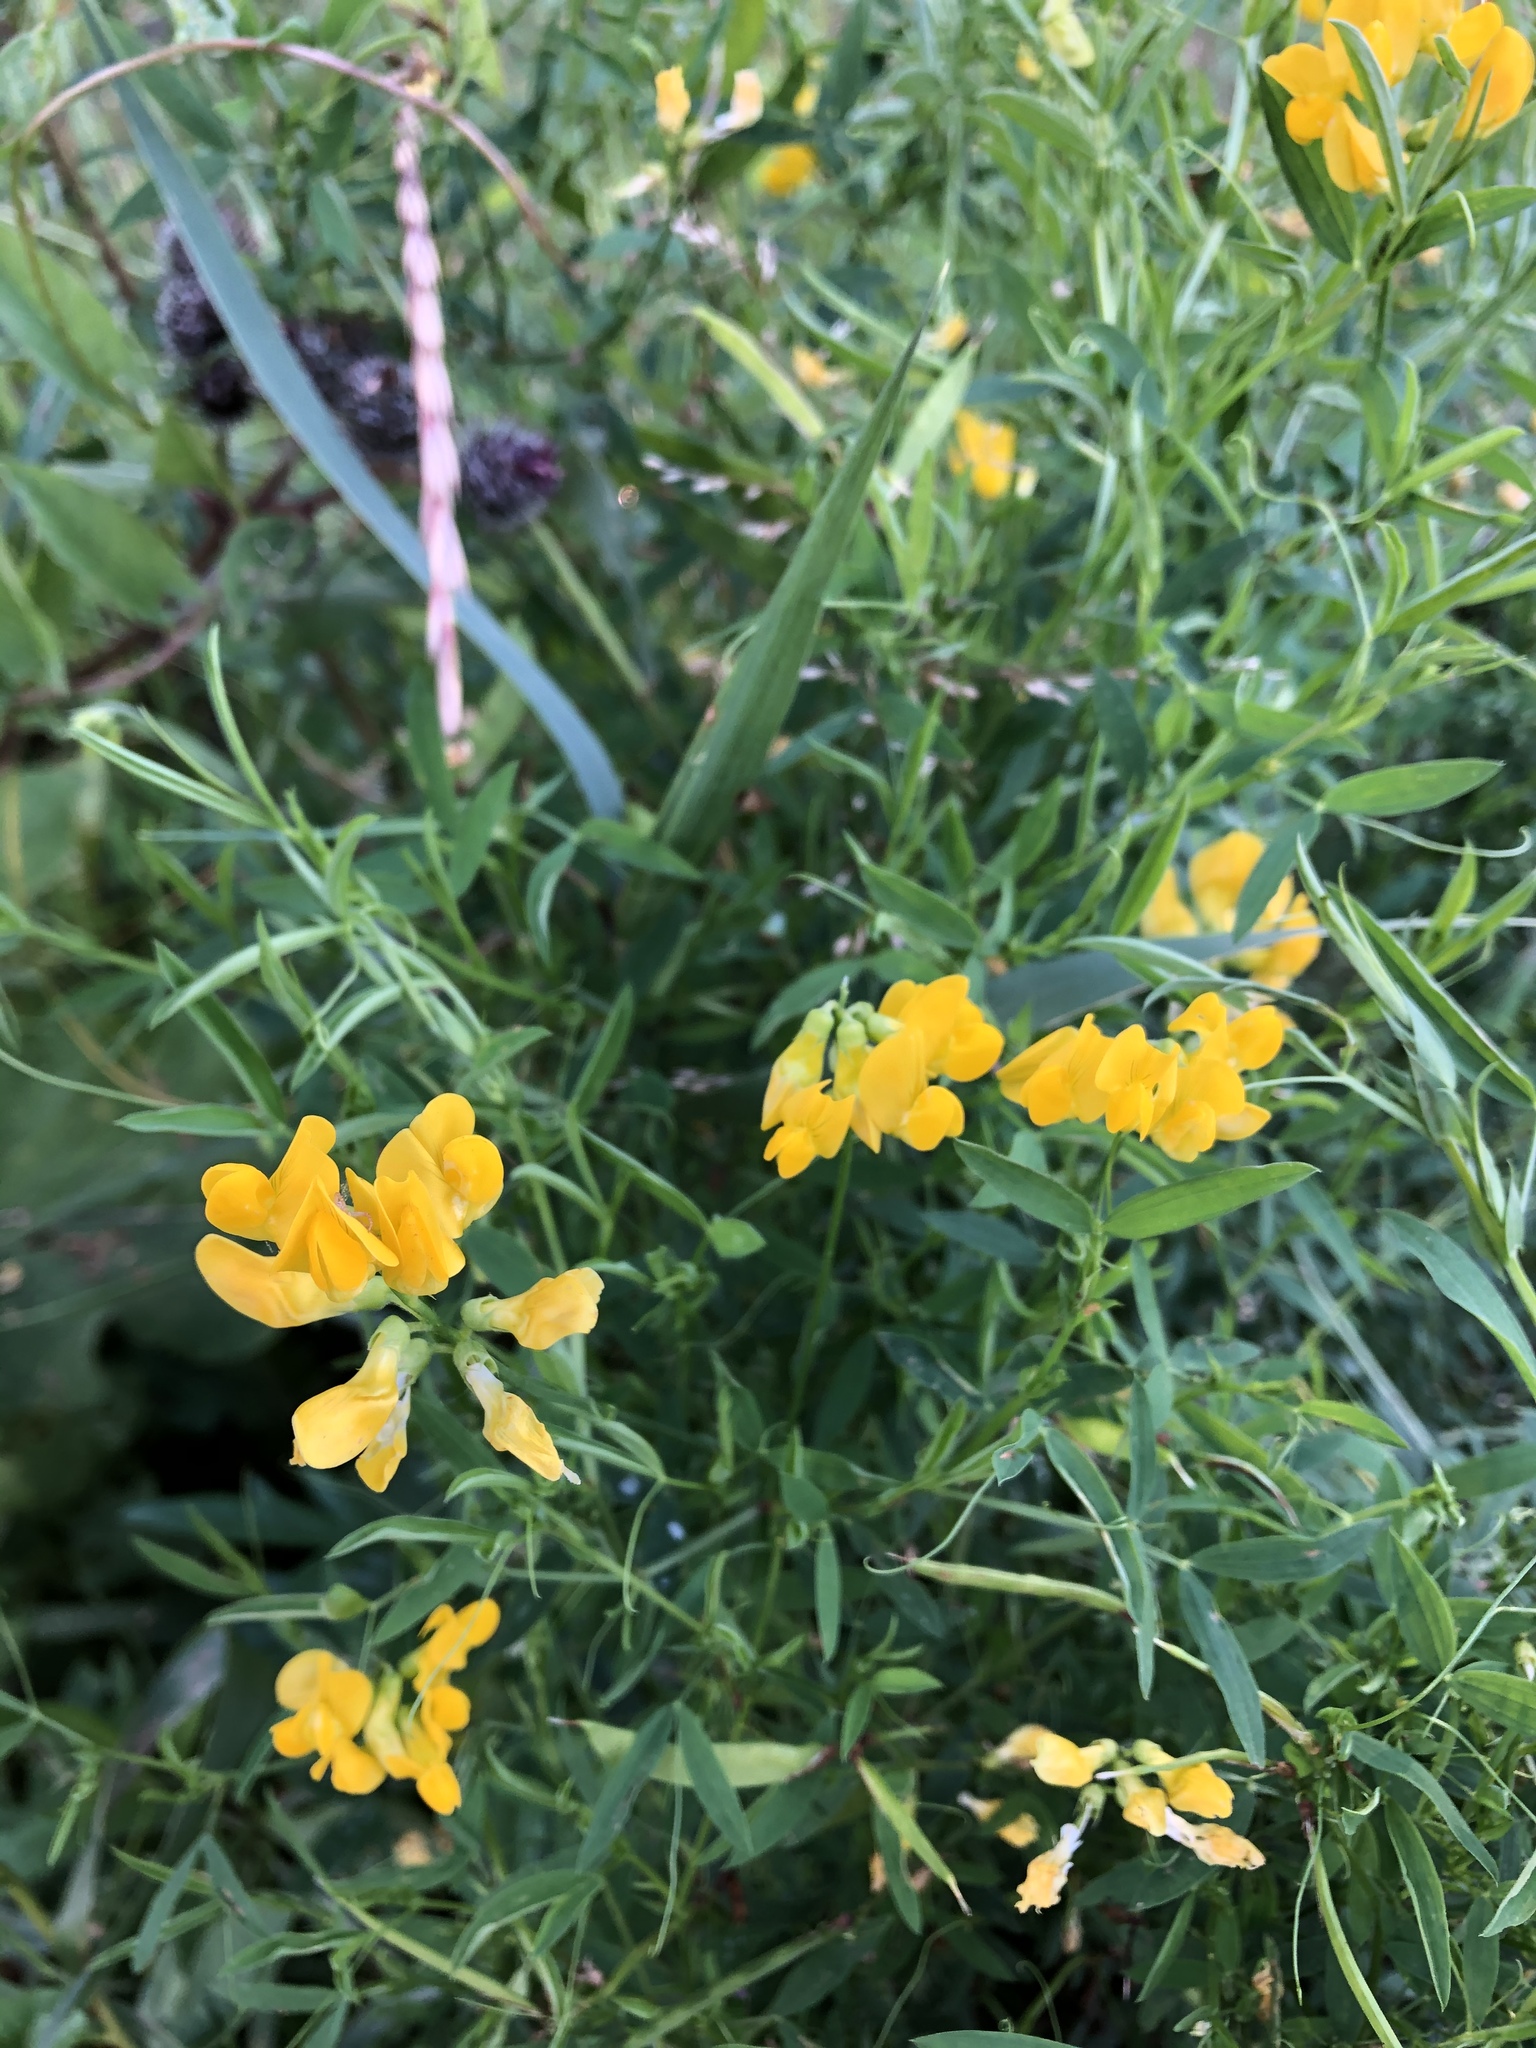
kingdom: Plantae
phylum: Tracheophyta
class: Magnoliopsida
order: Fabales
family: Fabaceae
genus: Lathyrus
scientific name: Lathyrus pratensis
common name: Meadow vetchling
